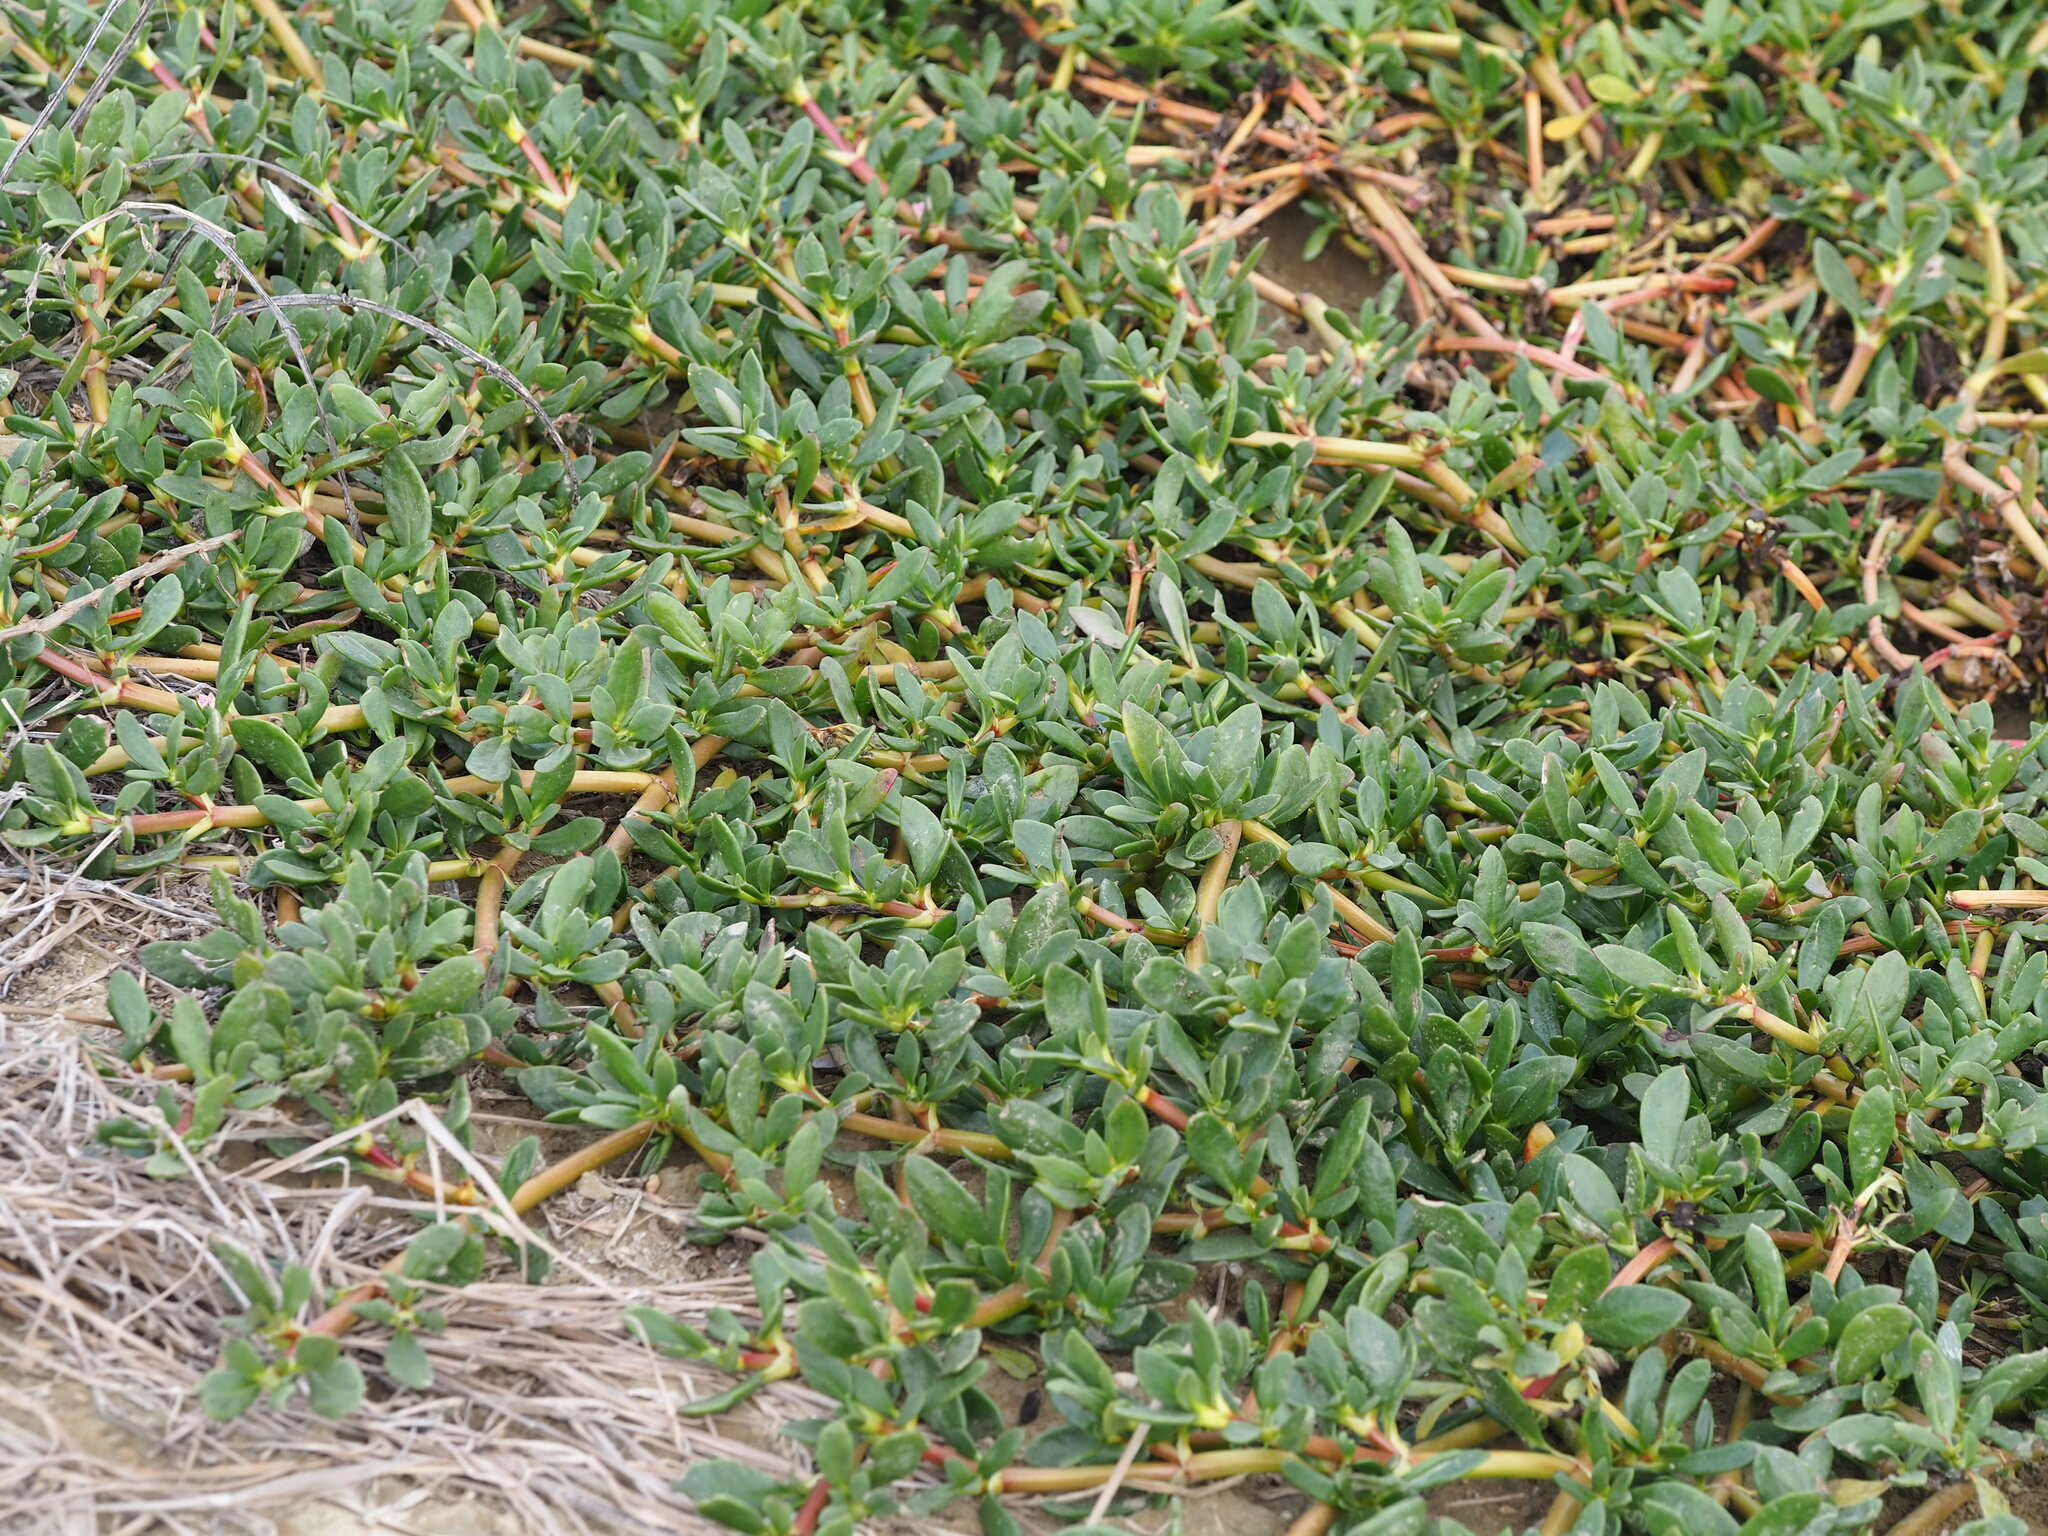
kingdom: Plantae
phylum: Tracheophyta
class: Magnoliopsida
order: Caryophyllales
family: Aizoaceae
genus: Sesuvium
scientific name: Sesuvium portulacastrum
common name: Sea-purslane
